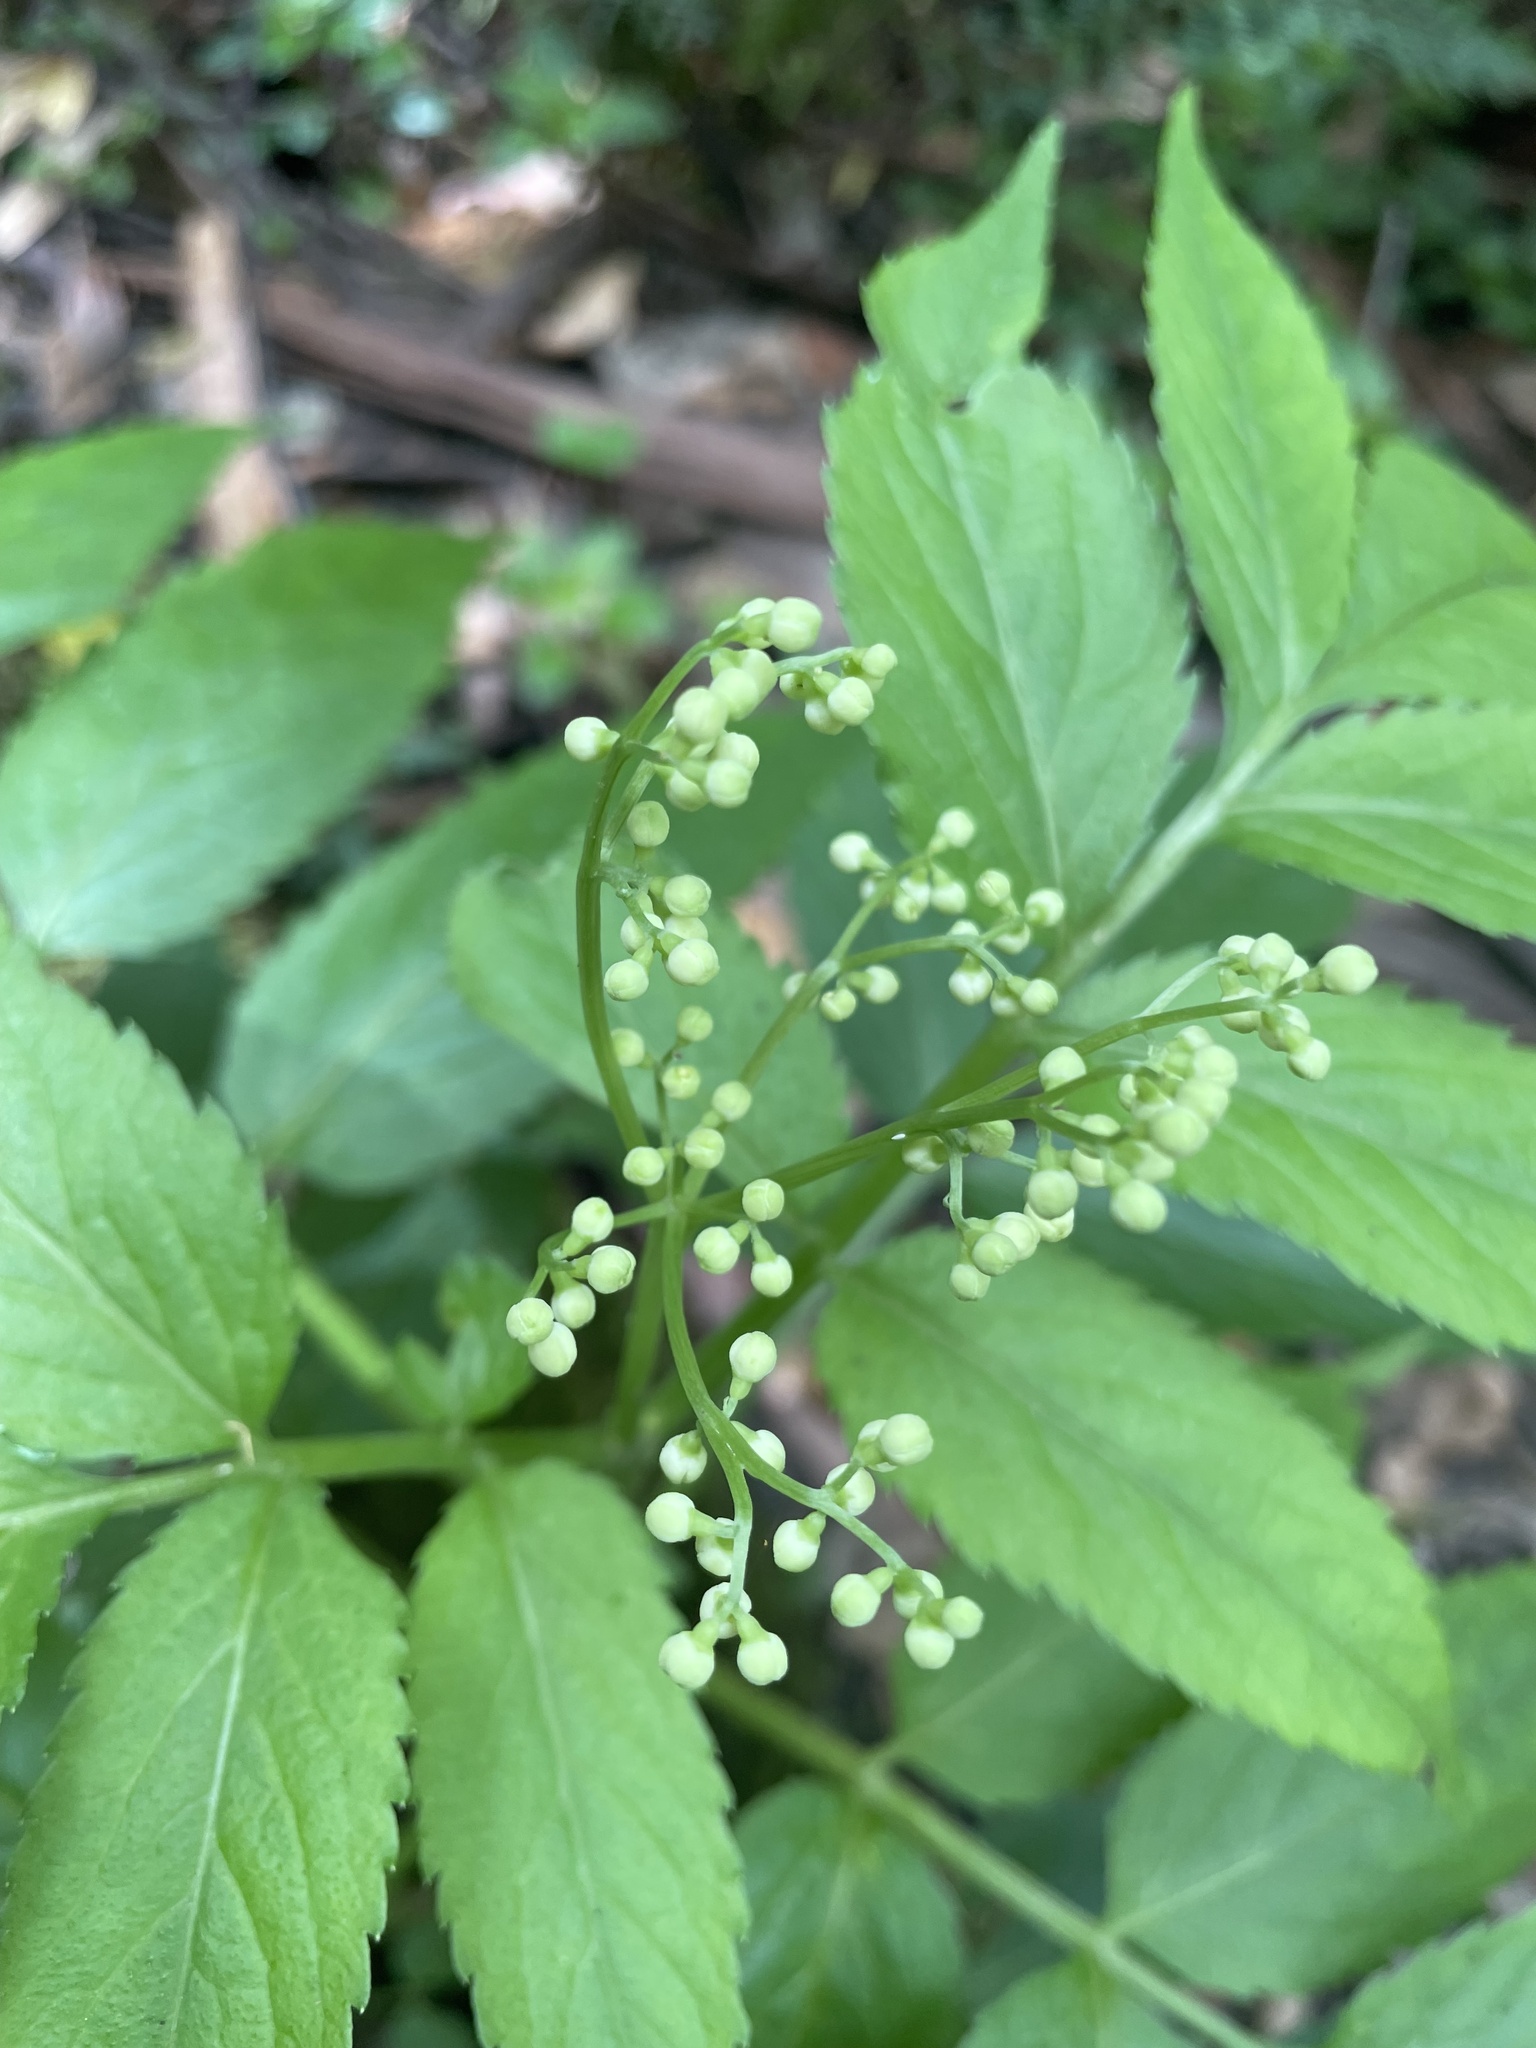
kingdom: Plantae
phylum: Tracheophyta
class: Magnoliopsida
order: Dipsacales
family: Viburnaceae
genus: Sambucus
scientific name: Sambucus gaudichaudiana
